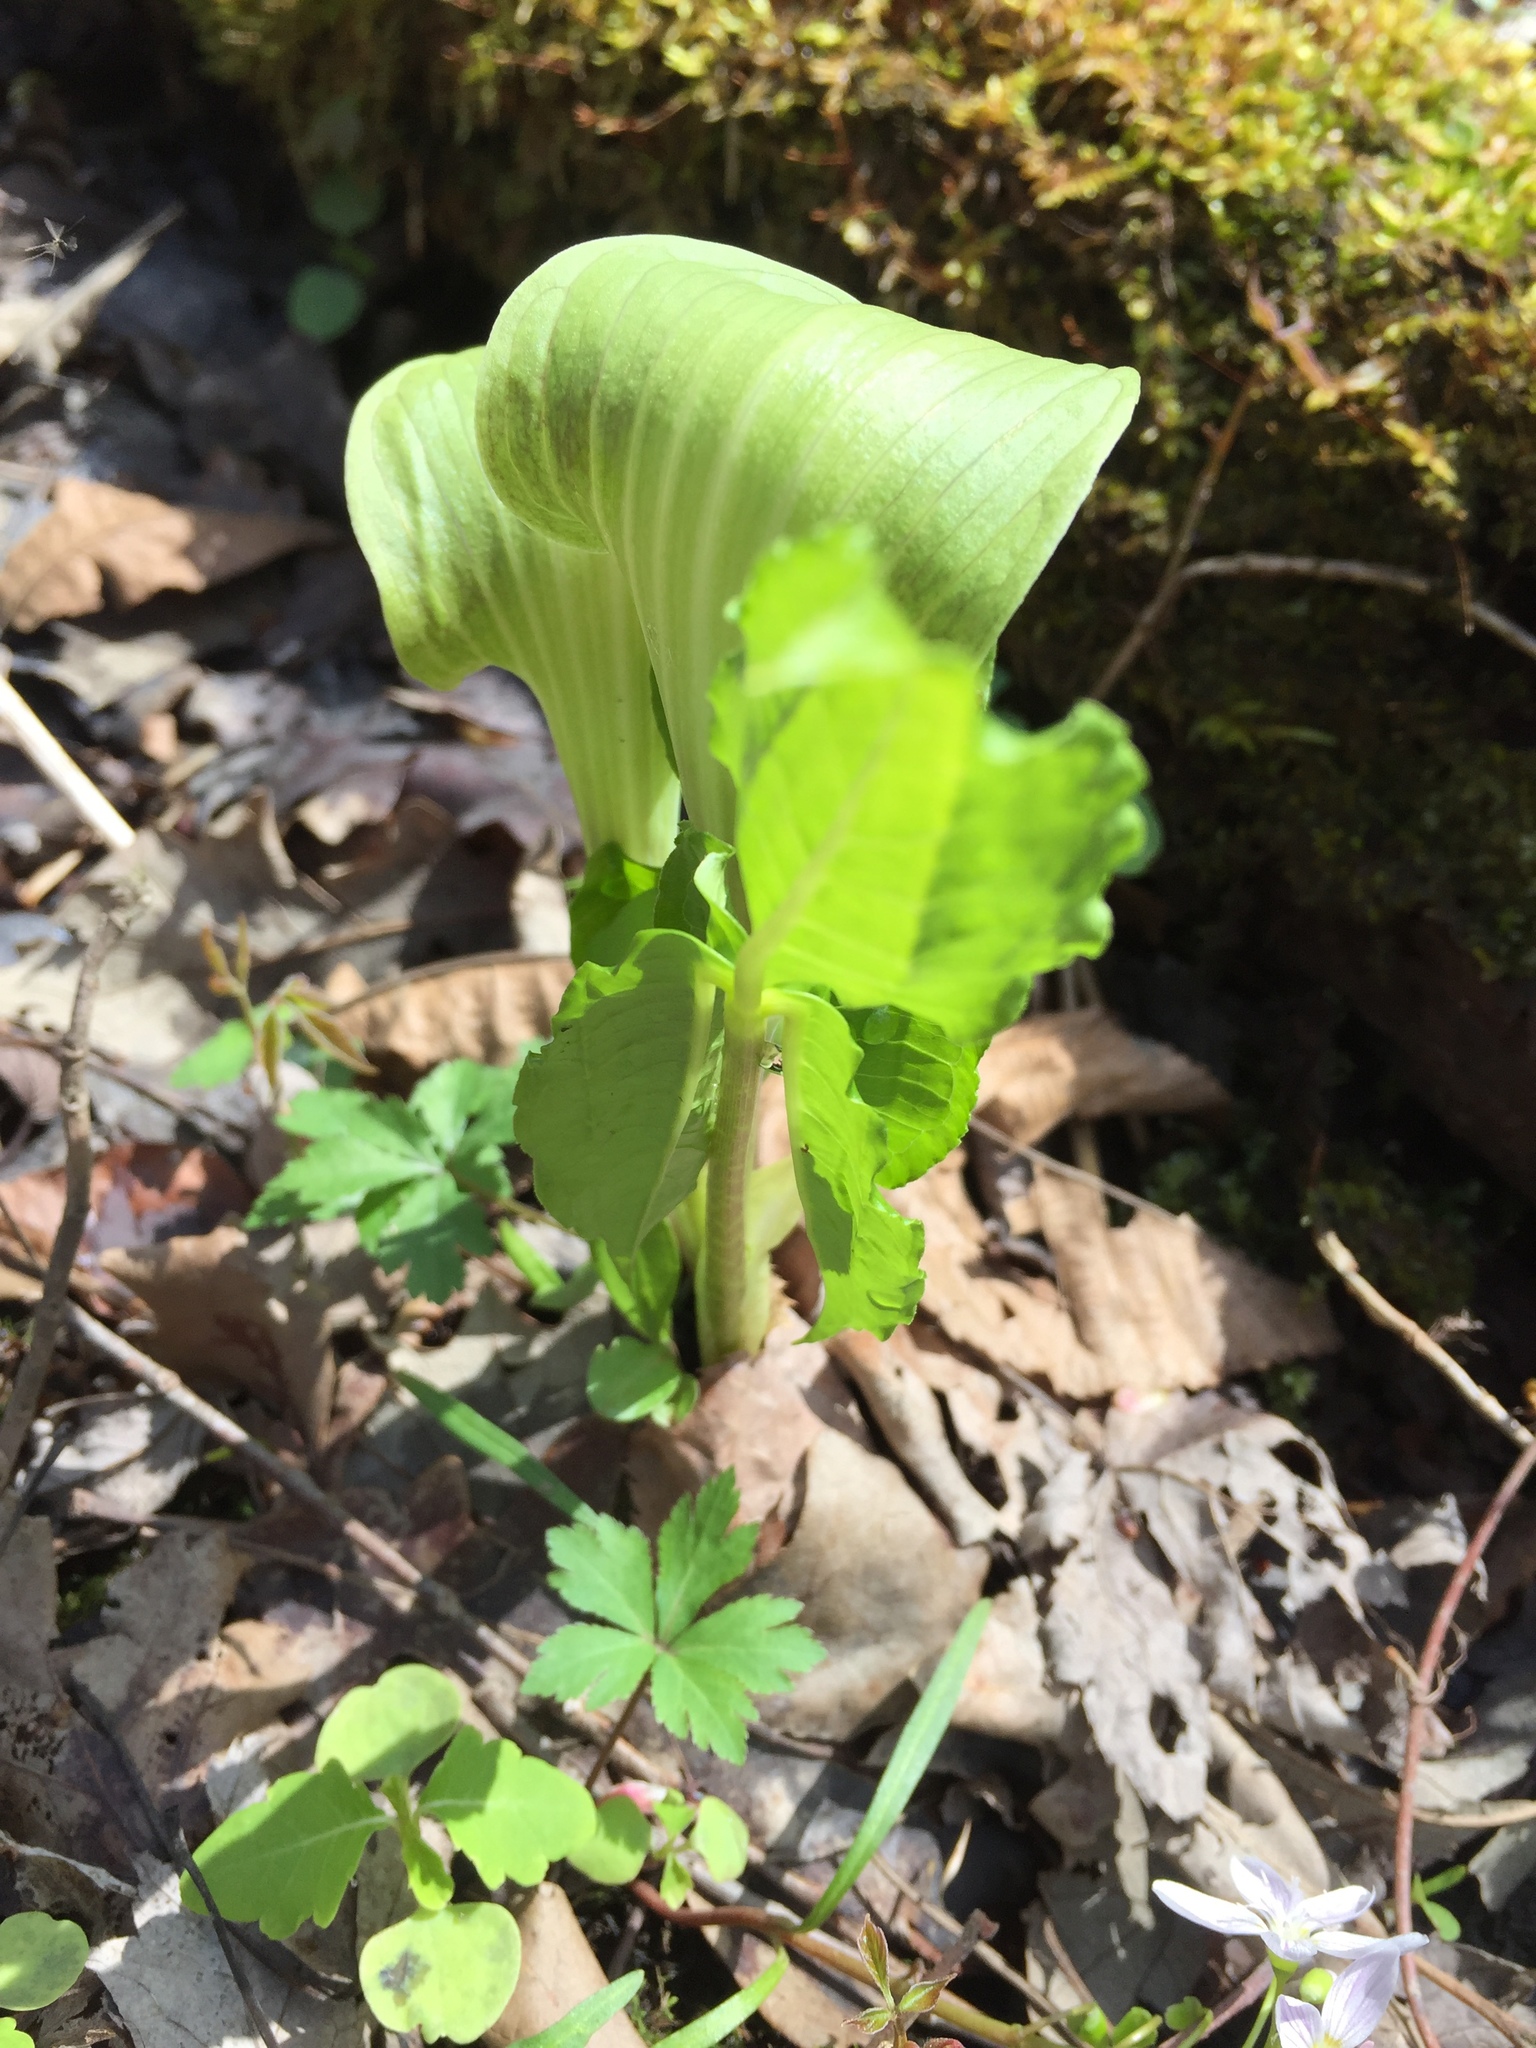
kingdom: Plantae
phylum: Tracheophyta
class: Liliopsida
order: Alismatales
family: Araceae
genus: Arisaema
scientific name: Arisaema triphyllum
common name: Jack-in-the-pulpit
